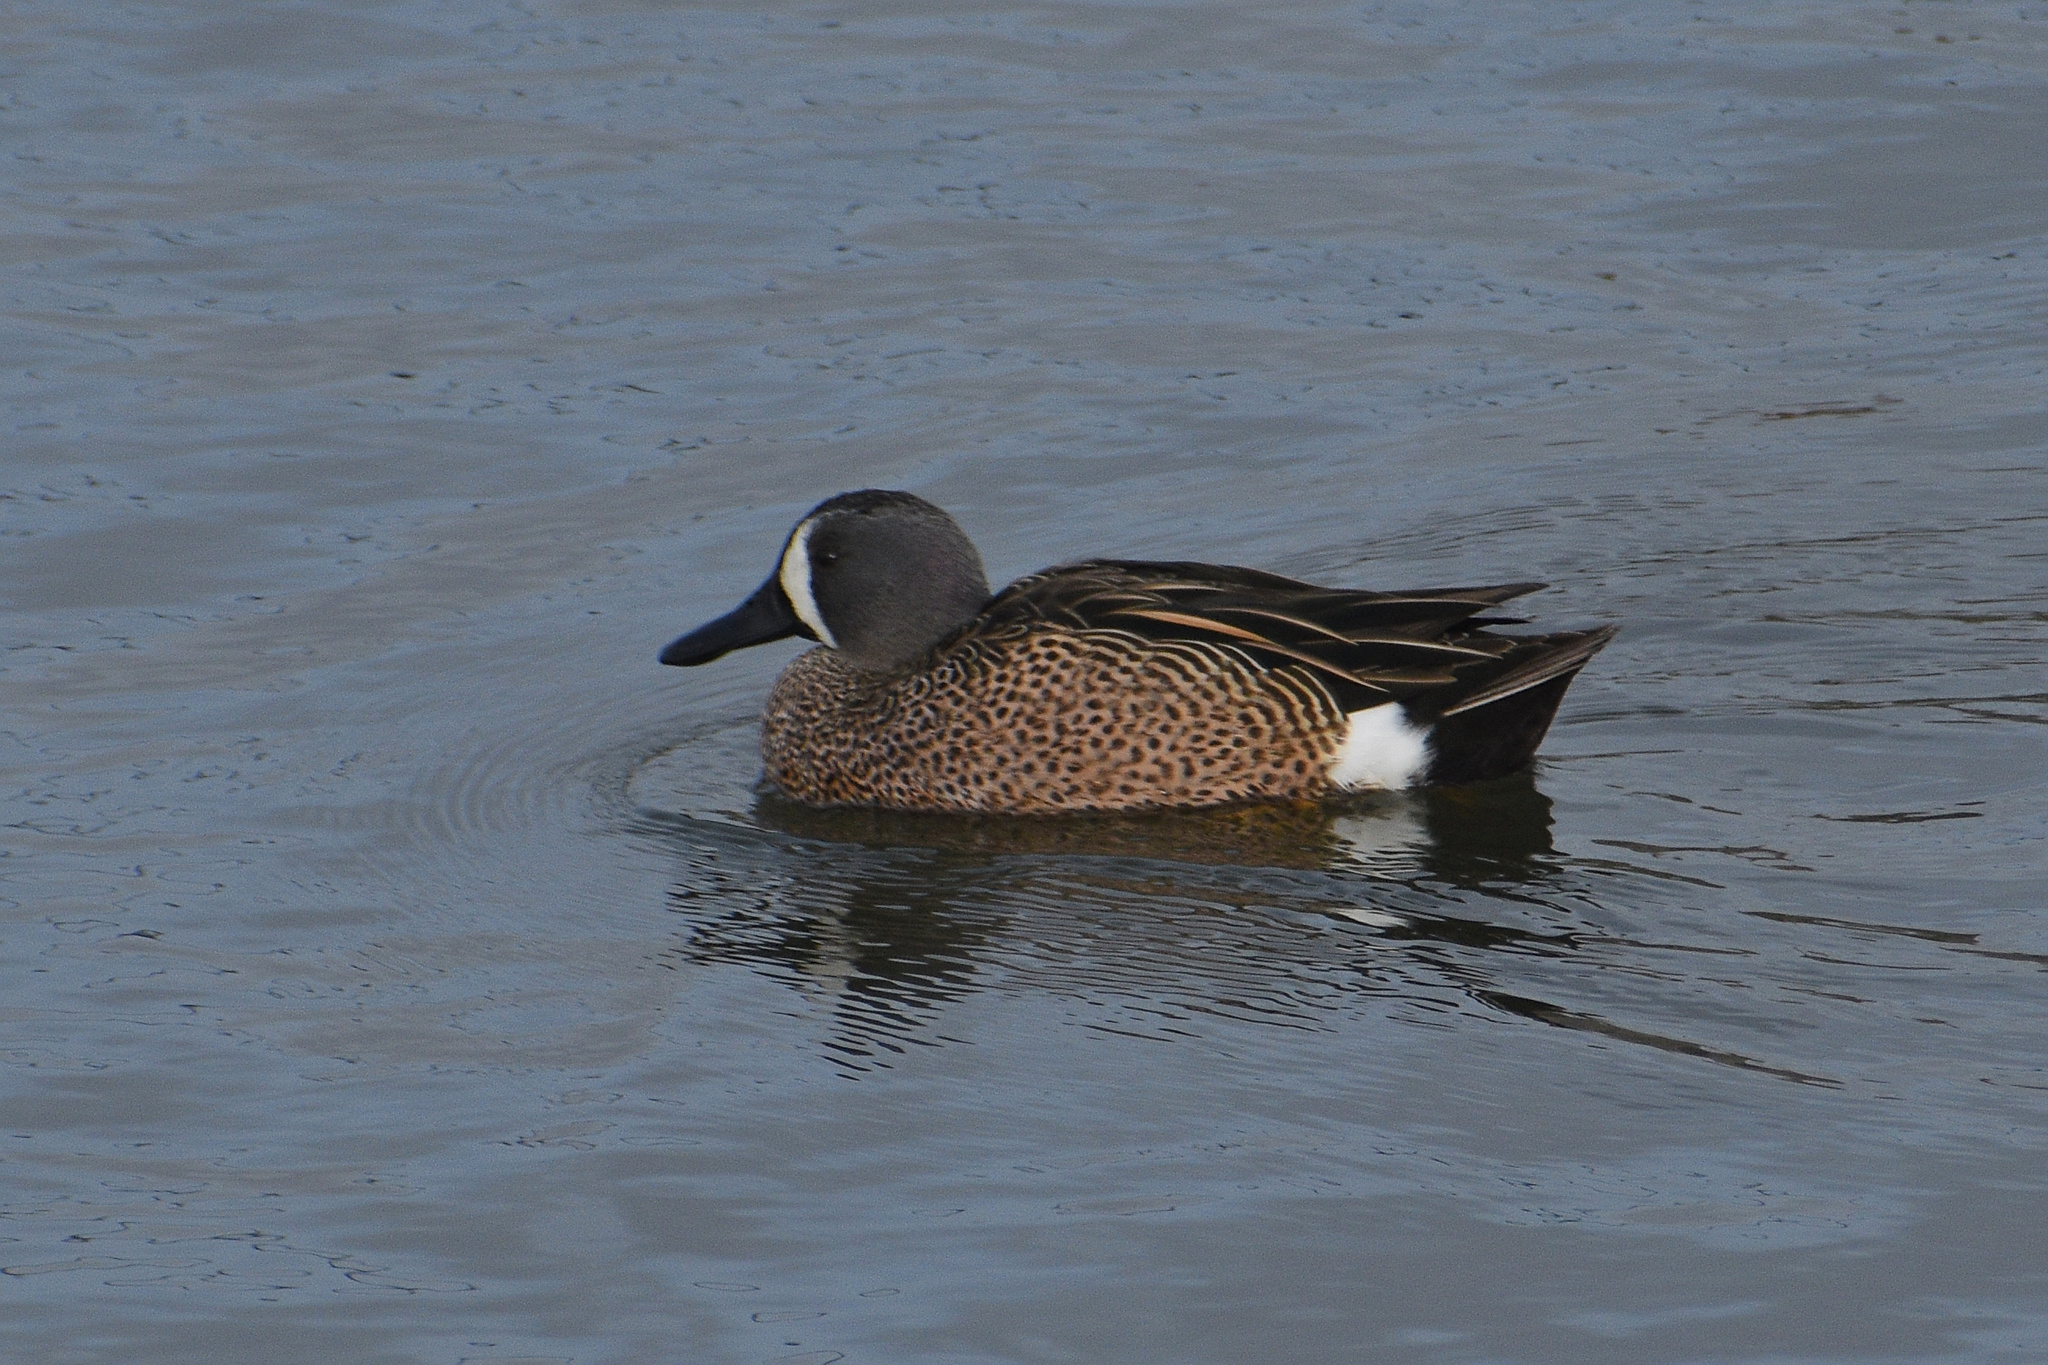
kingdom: Animalia
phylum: Chordata
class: Aves
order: Anseriformes
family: Anatidae
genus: Spatula
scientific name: Spatula discors
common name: Blue-winged teal
